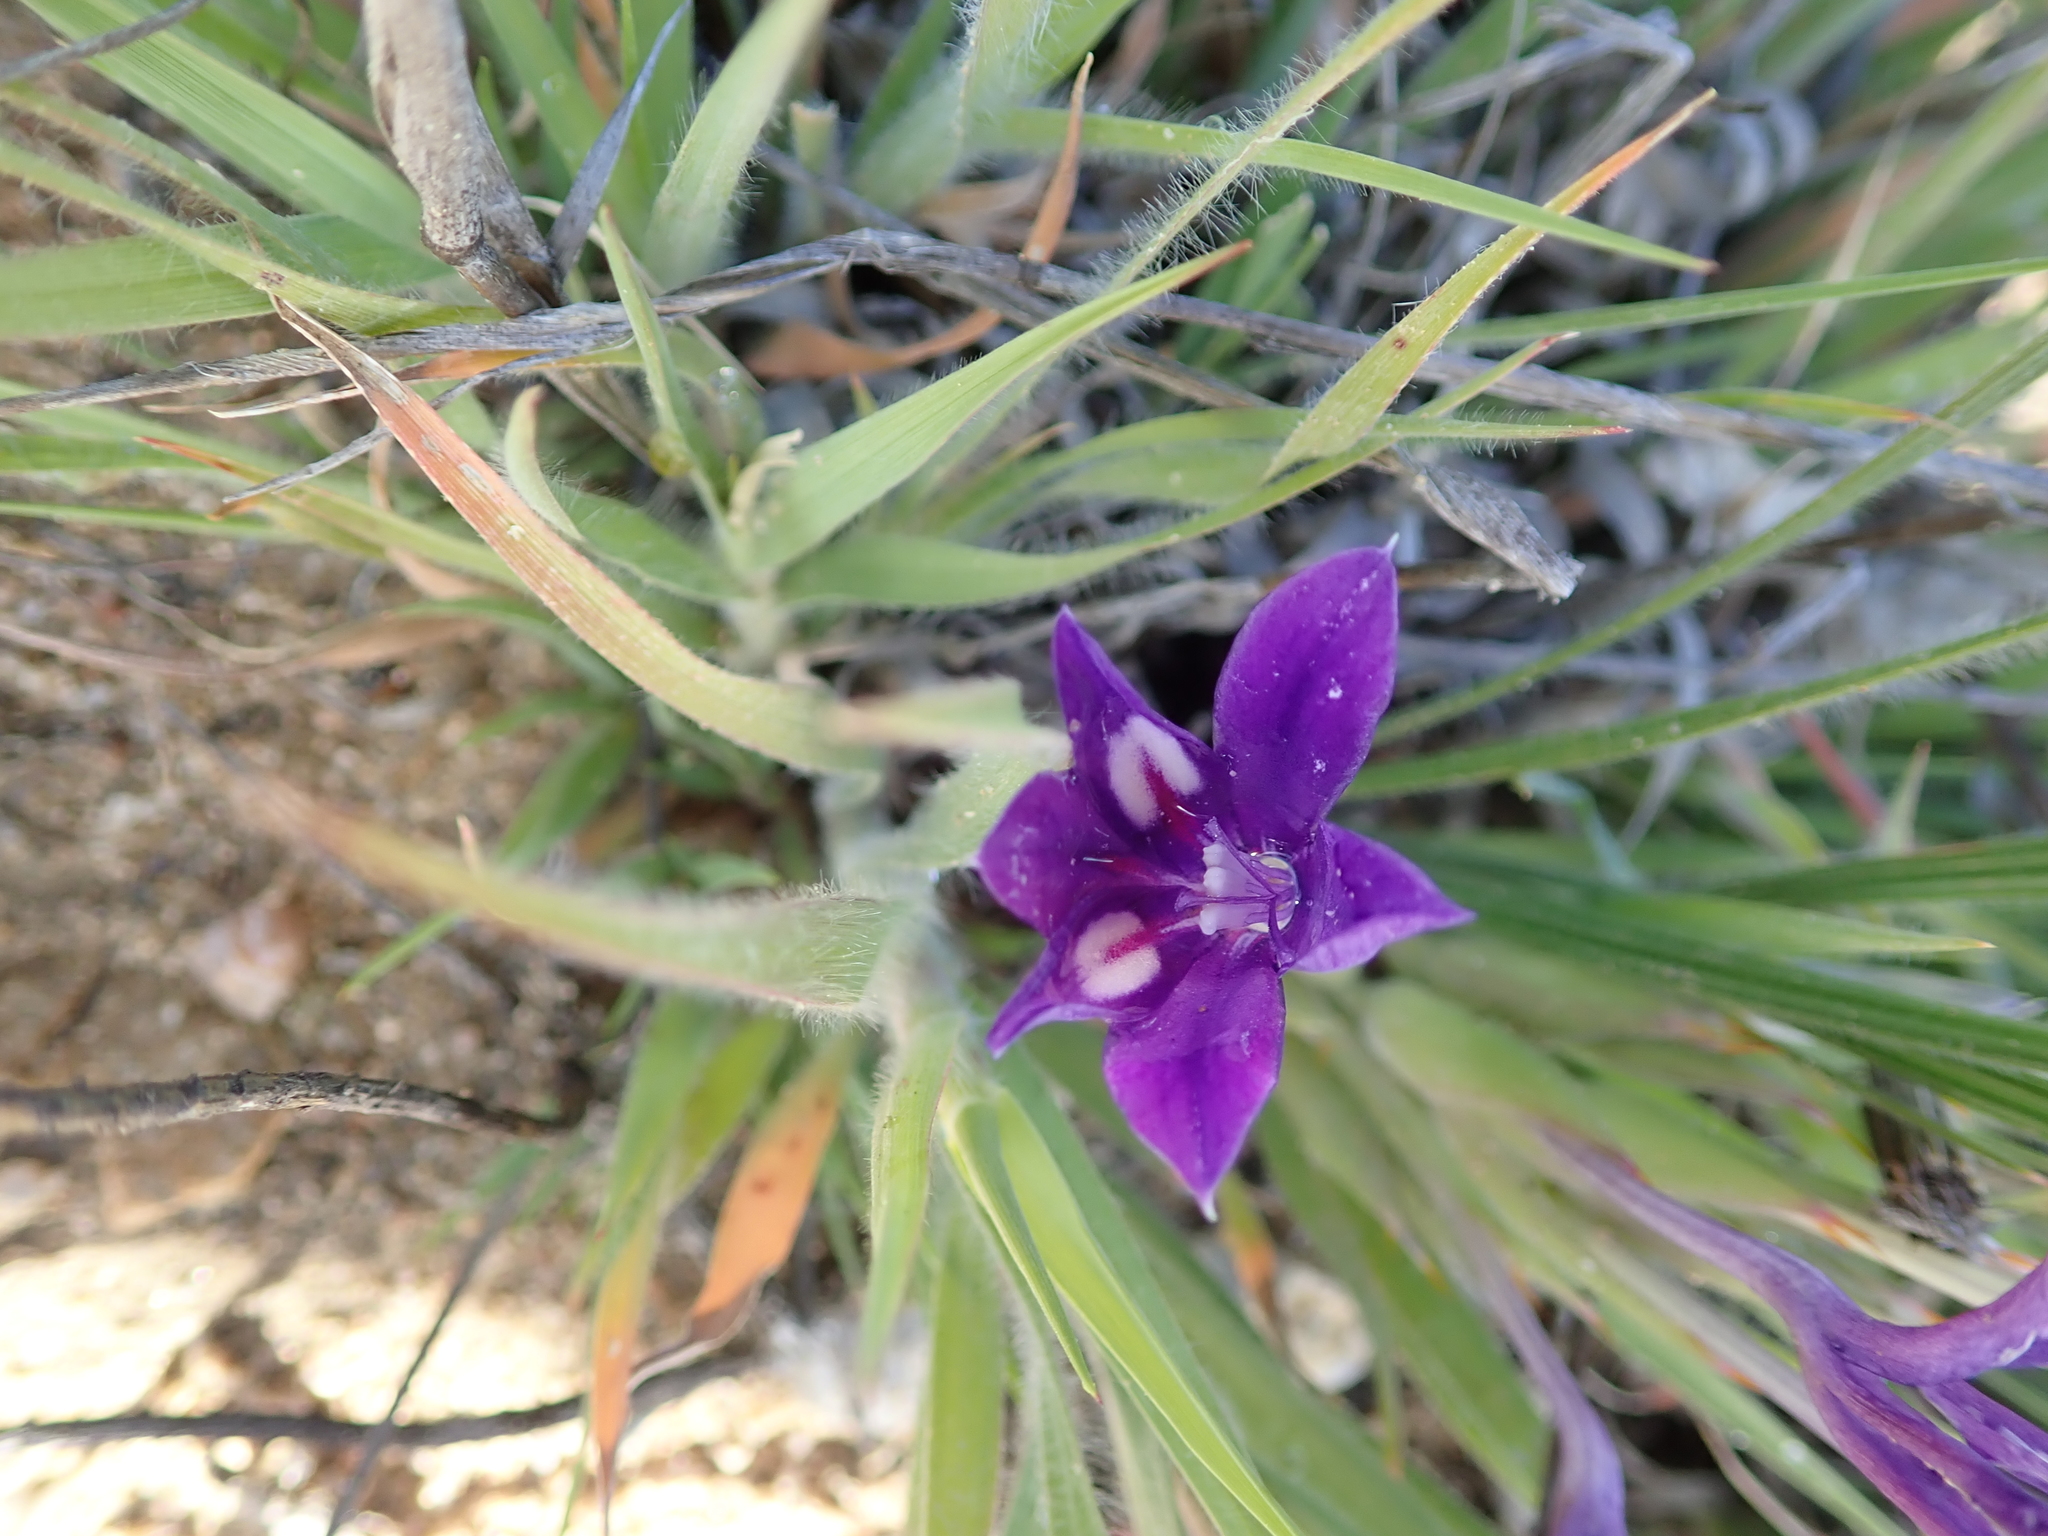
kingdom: Plantae
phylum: Tracheophyta
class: Liliopsida
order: Asparagales
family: Iridaceae
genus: Babiana
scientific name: Babiana dregei
